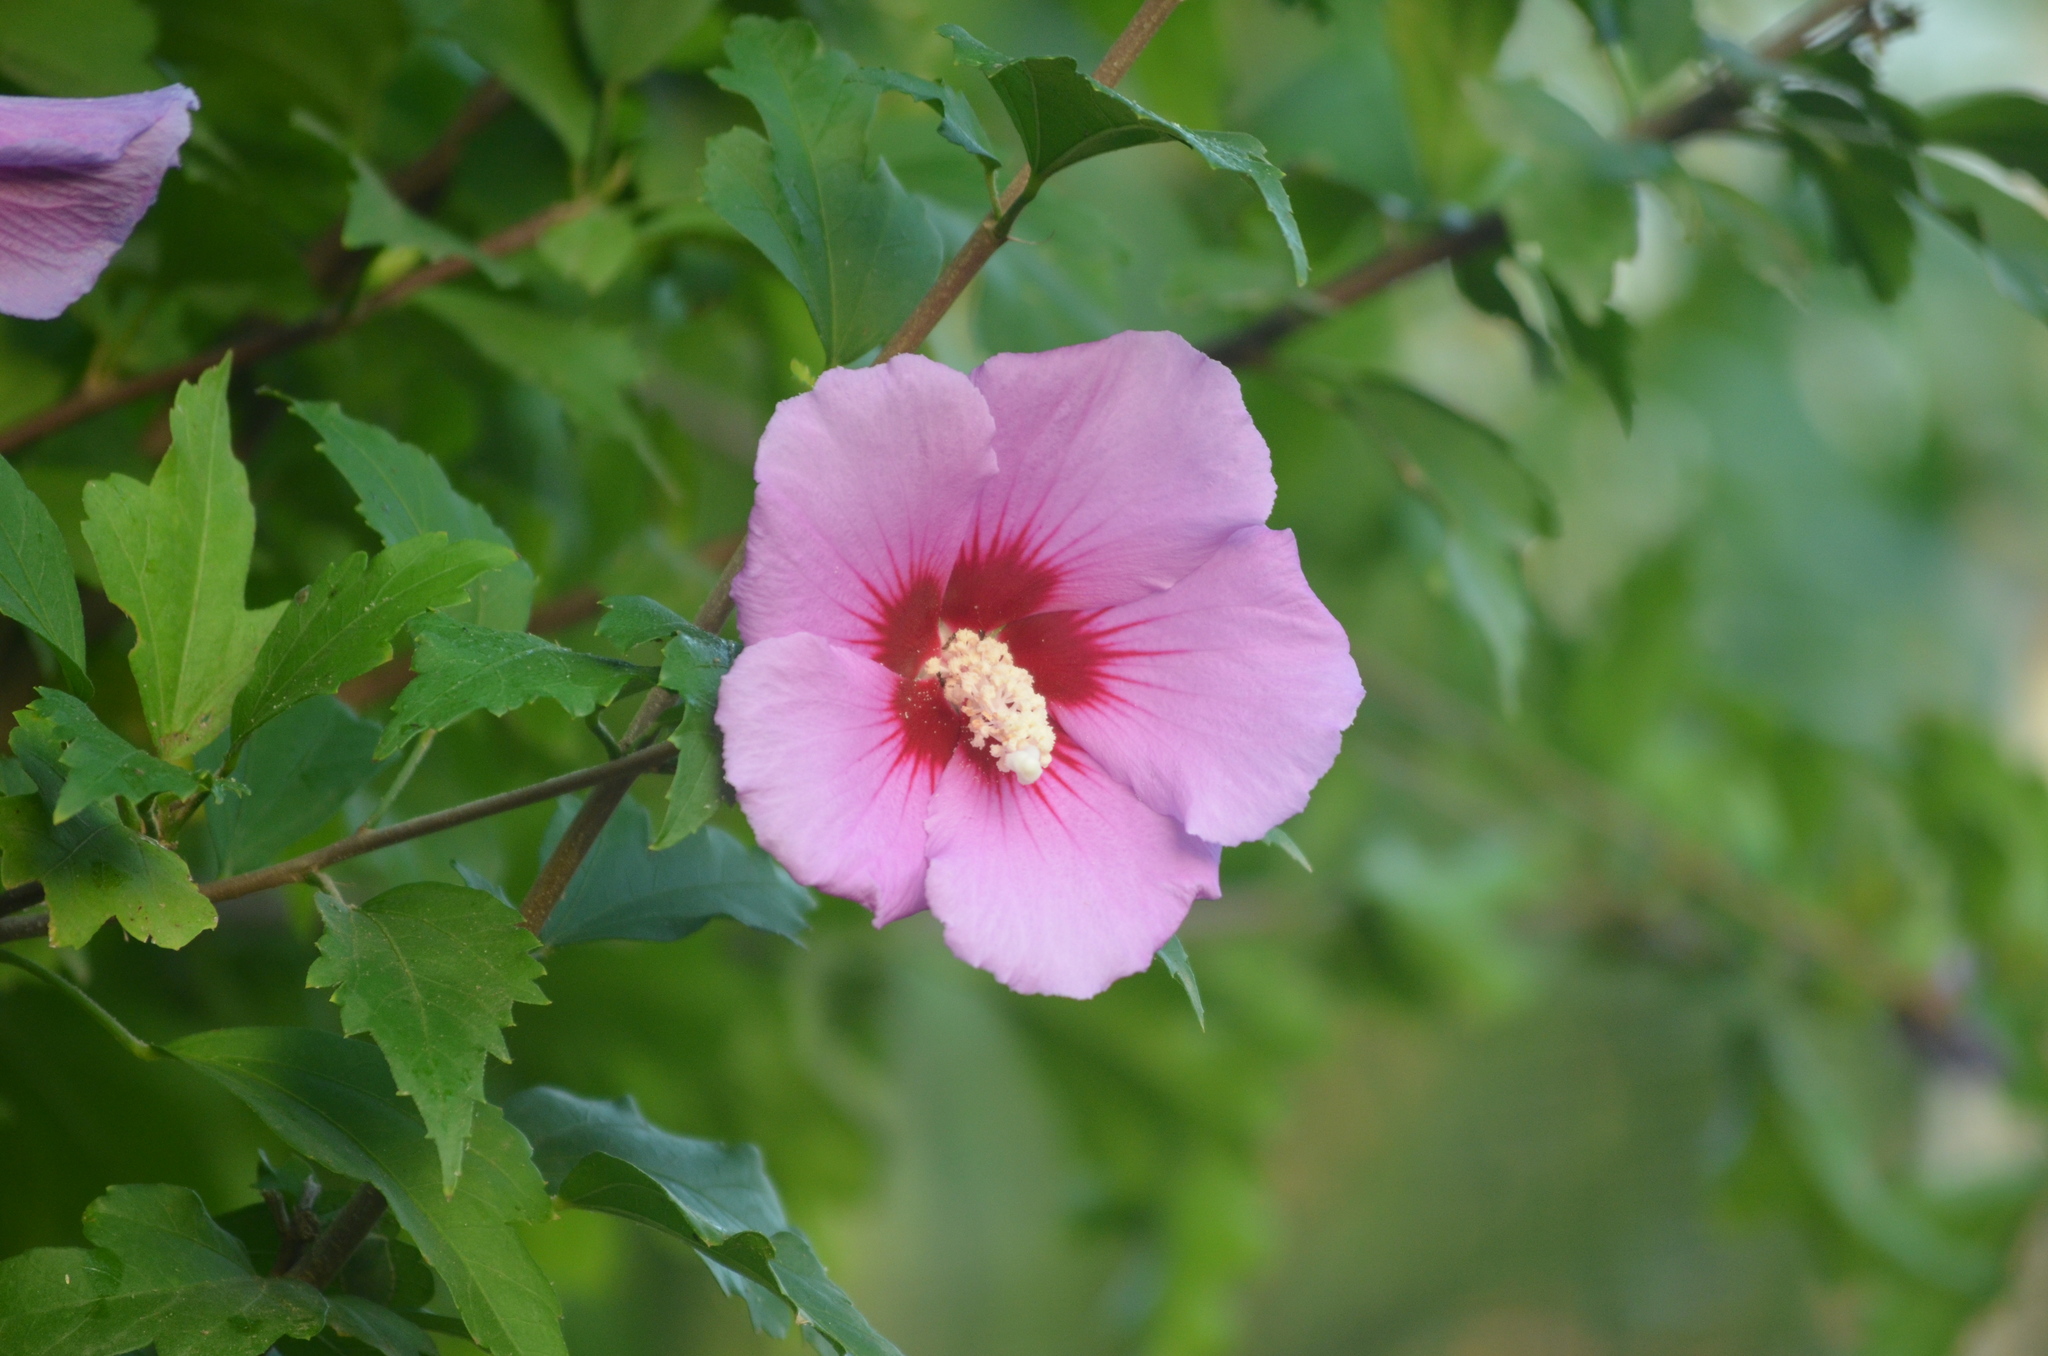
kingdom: Plantae
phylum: Tracheophyta
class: Magnoliopsida
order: Malvales
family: Malvaceae
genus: Hibiscus
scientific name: Hibiscus syriacus
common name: Syrian ketmia
